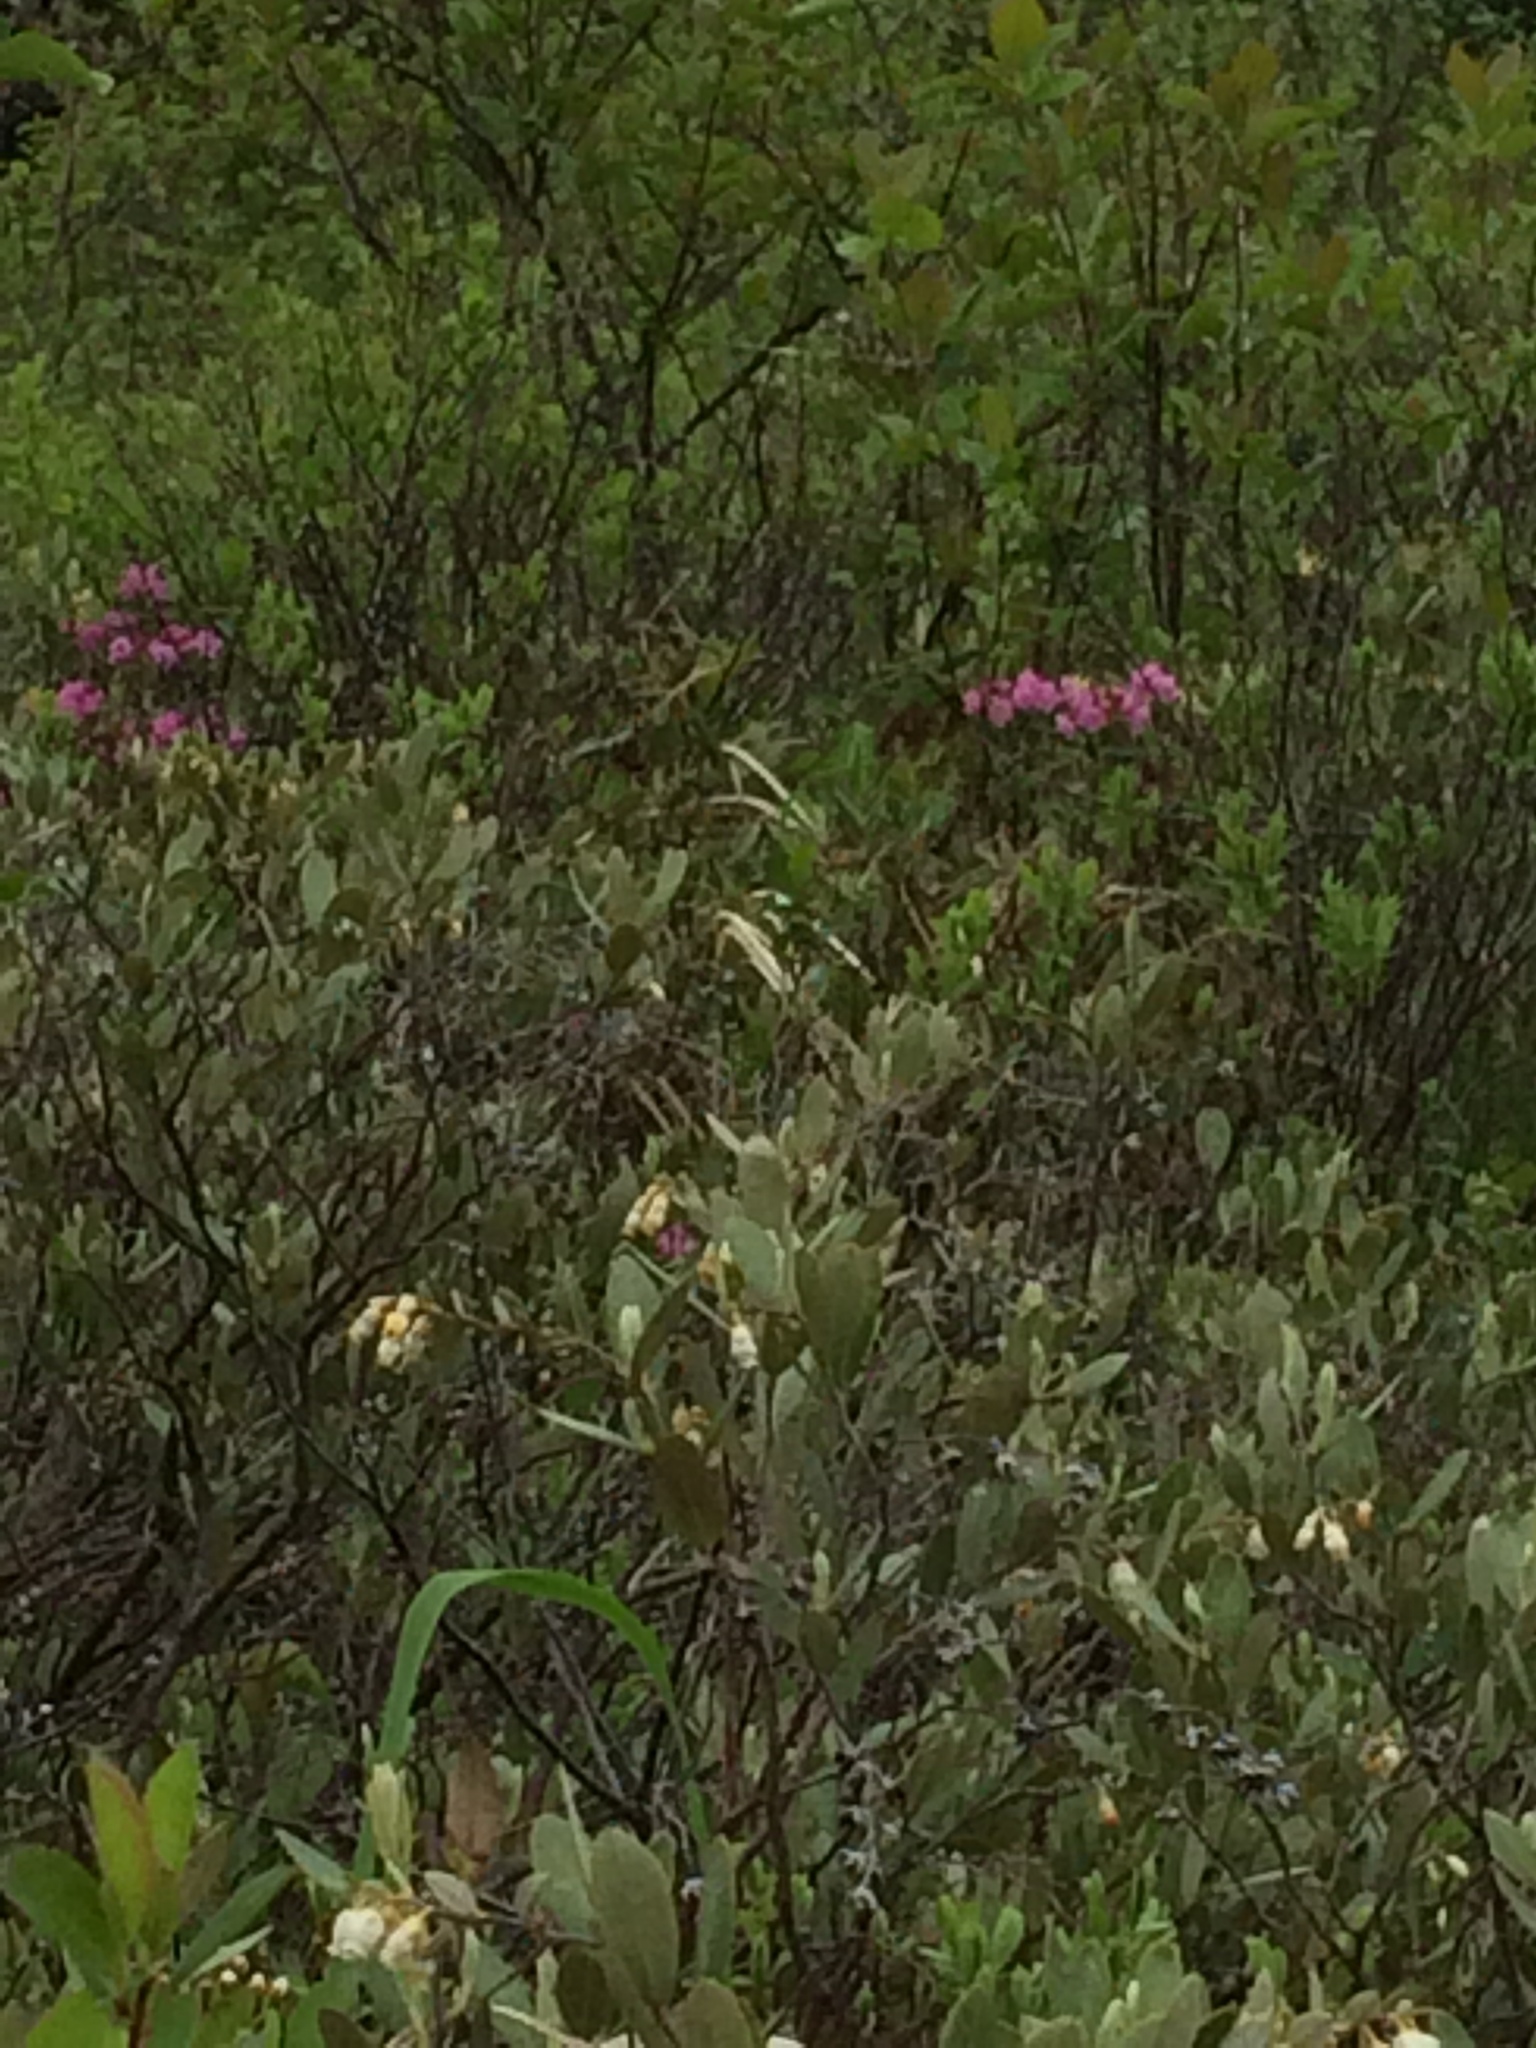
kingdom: Plantae
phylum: Tracheophyta
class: Magnoliopsida
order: Ericales
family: Ericaceae
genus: Kalmia
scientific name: Kalmia polifolia
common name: Bog-laurel
